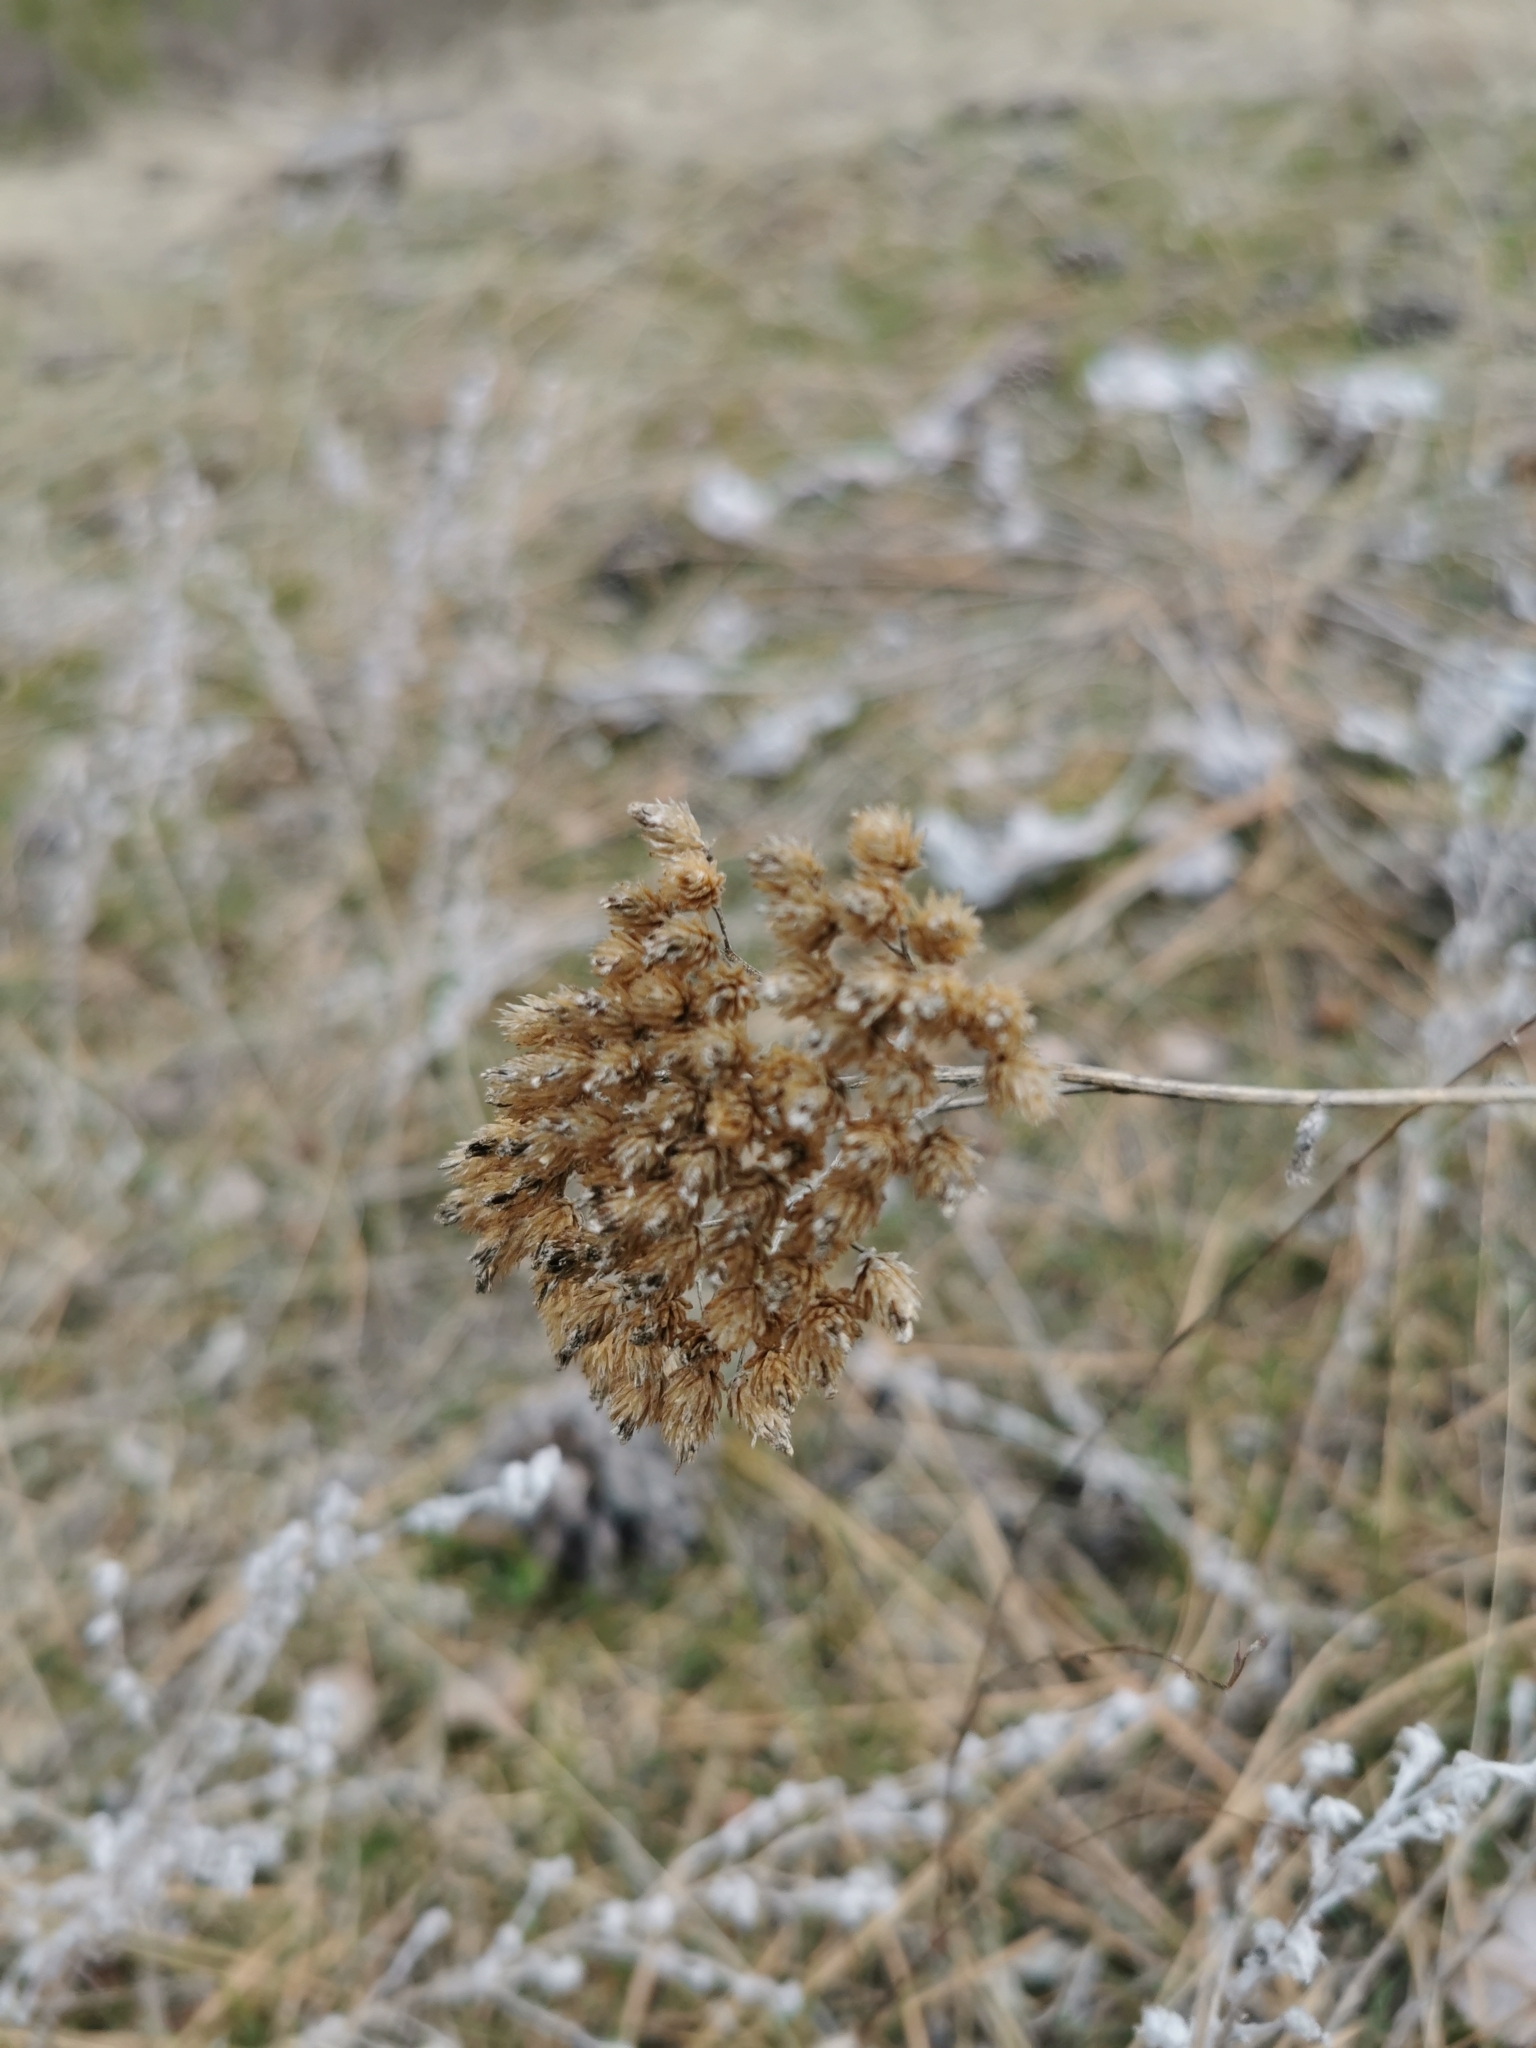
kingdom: Plantae
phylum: Tracheophyta
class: Magnoliopsida
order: Asterales
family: Asteraceae
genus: Achillea
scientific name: Achillea millefolium
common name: Yarrow
